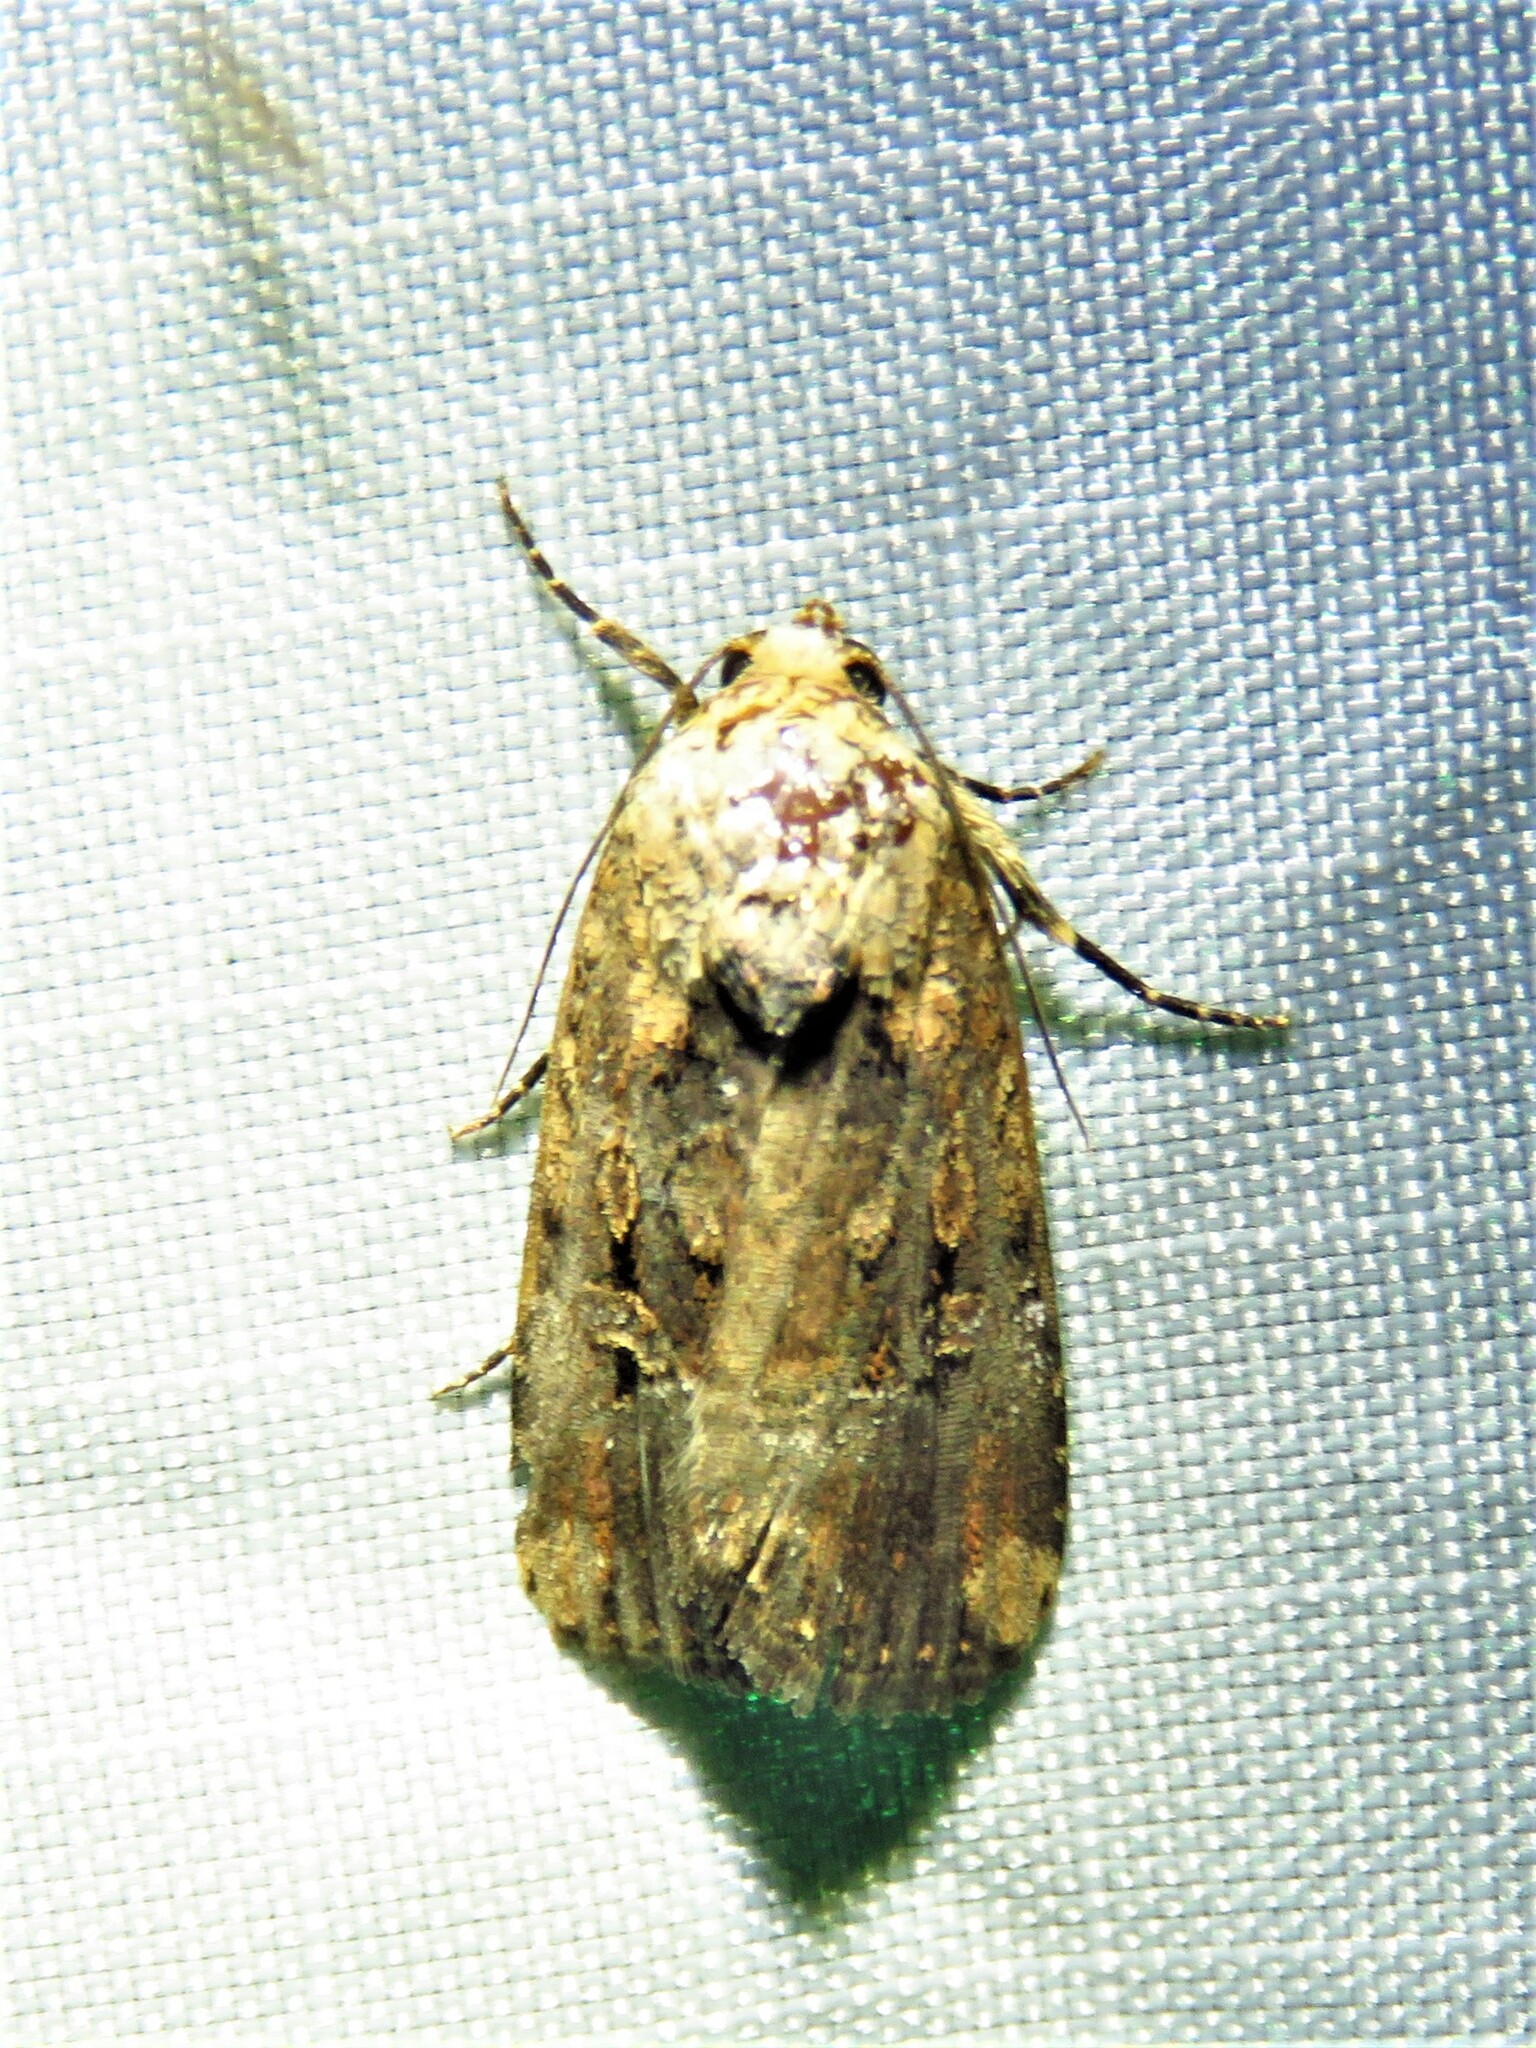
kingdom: Animalia
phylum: Arthropoda
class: Insecta
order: Lepidoptera
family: Noctuidae
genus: Elaphria
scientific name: Elaphria chalcedonia
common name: Chalcedony midget
